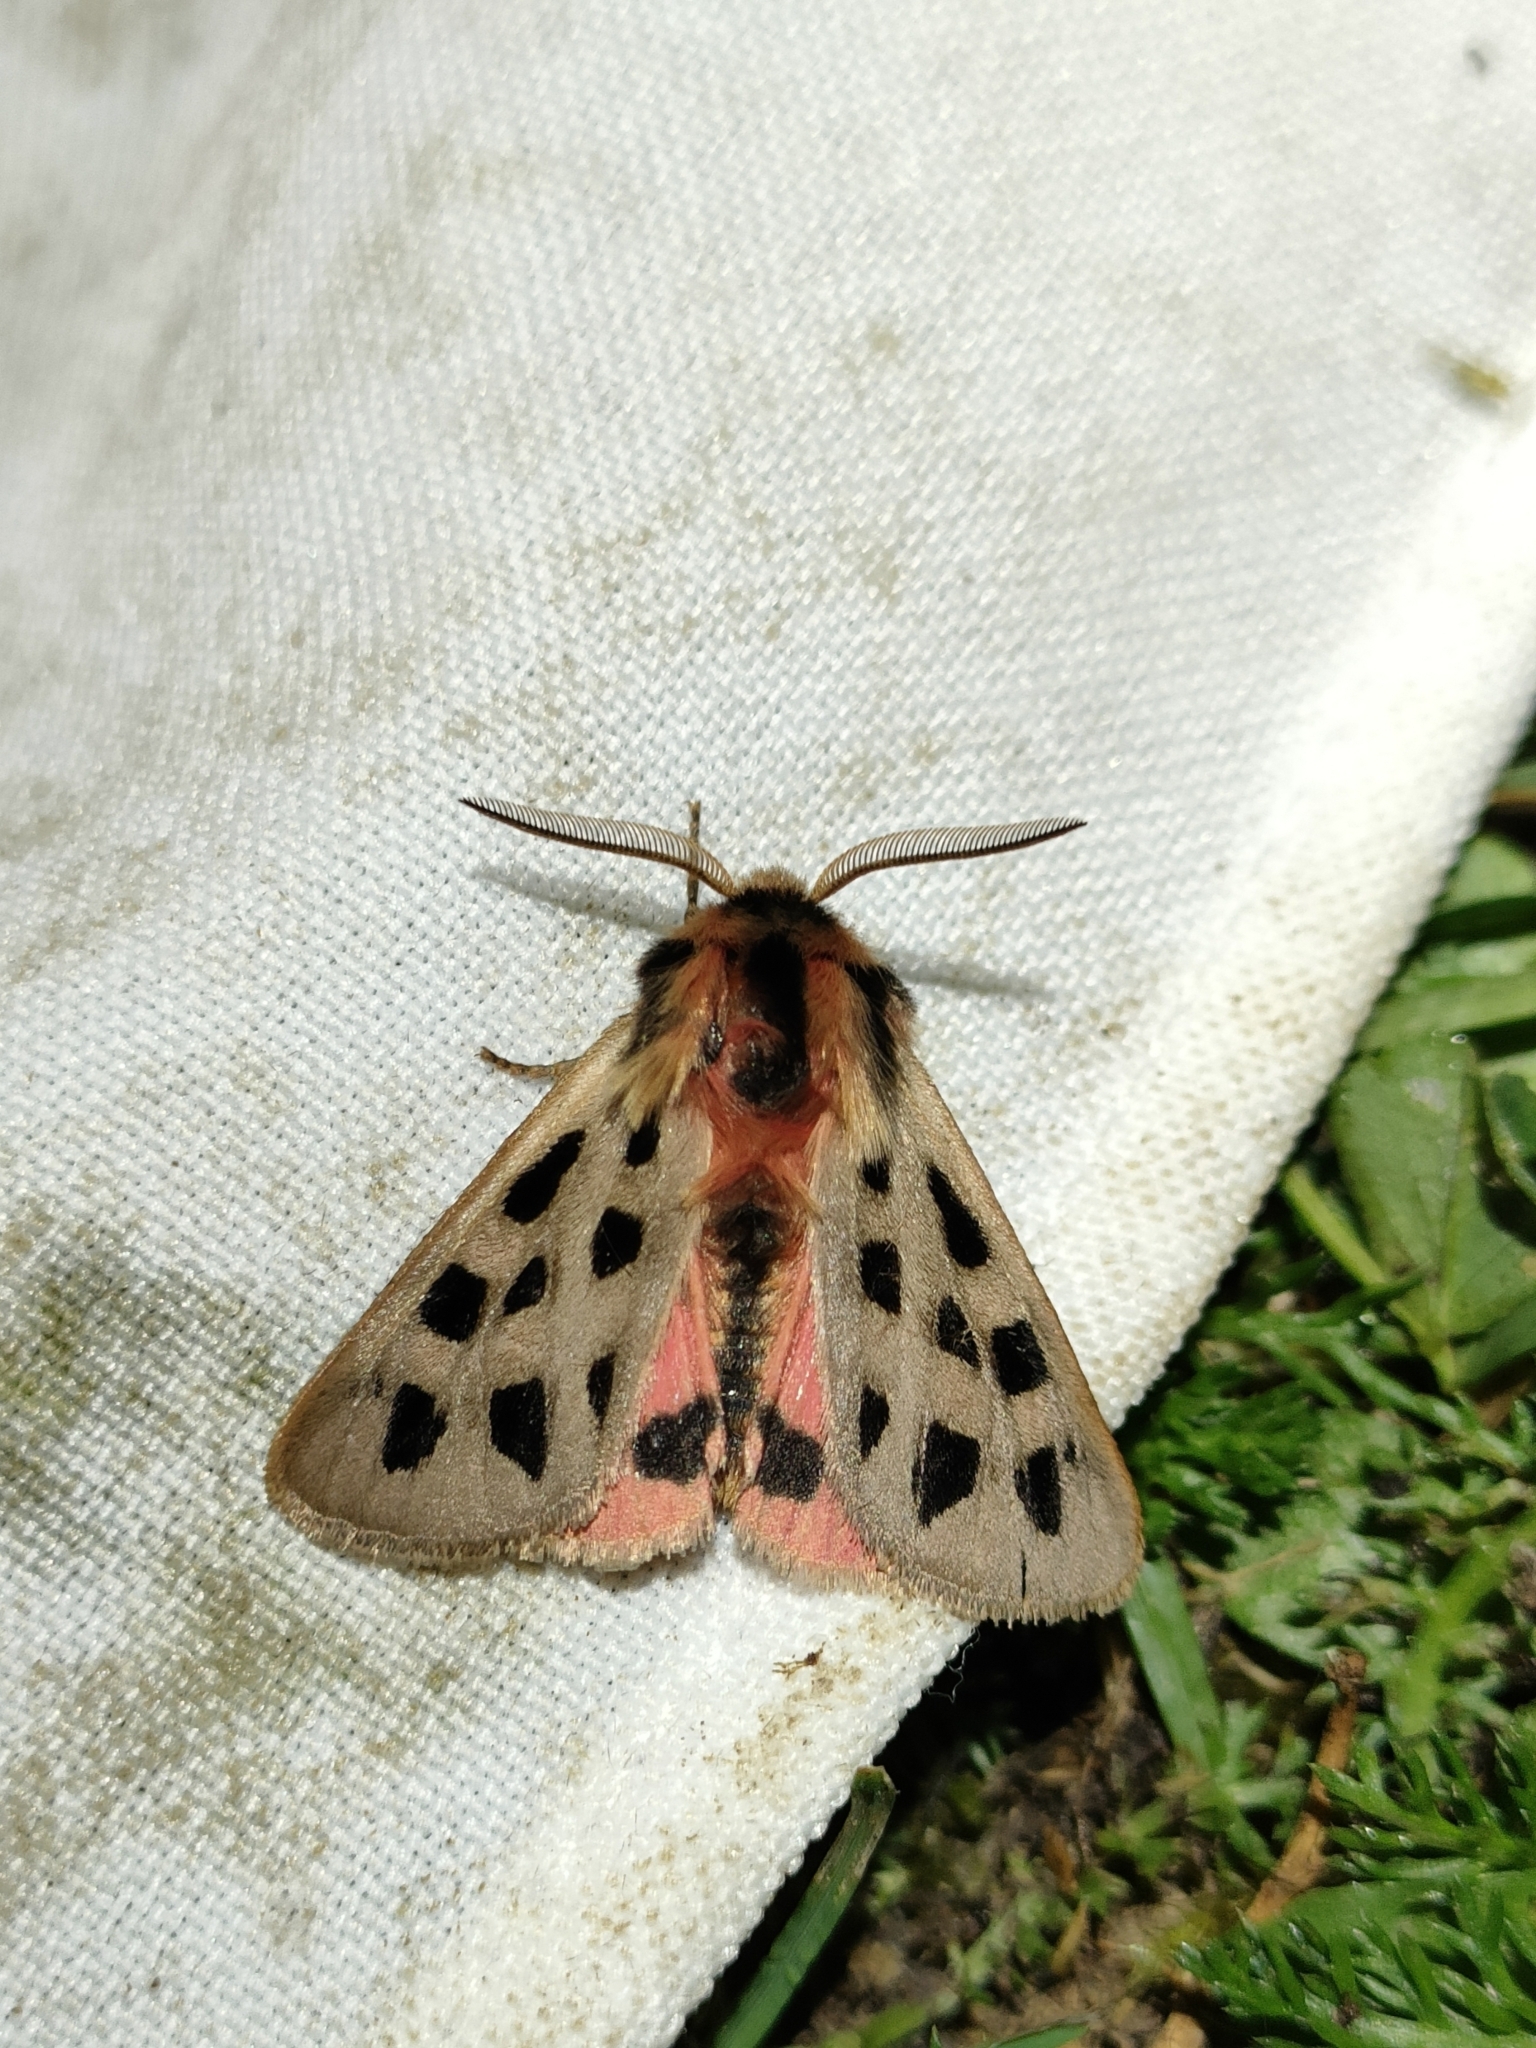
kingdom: Animalia
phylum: Arthropoda
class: Insecta
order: Lepidoptera
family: Erebidae
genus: Chelis
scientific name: Chelis maculosa
